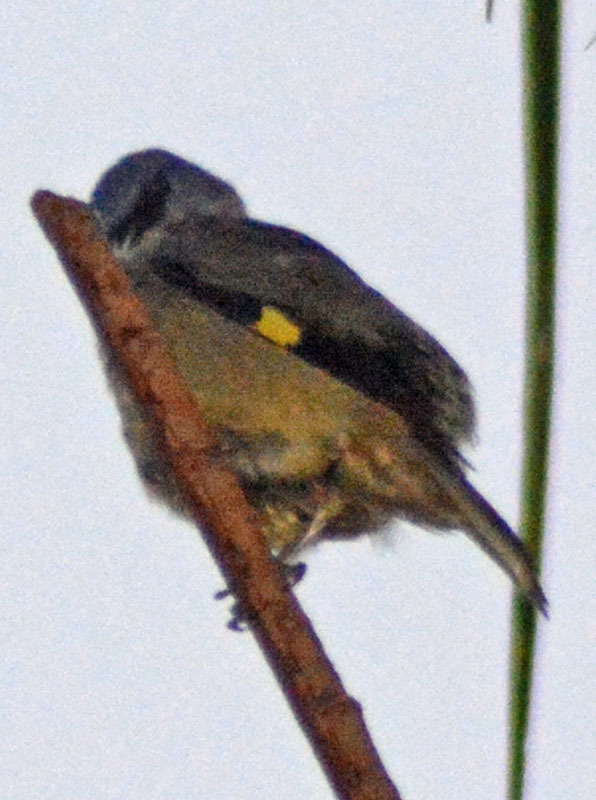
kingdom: Animalia
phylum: Chordata
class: Aves
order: Passeriformes
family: Thraupidae
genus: Thraupis
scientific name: Thraupis abbas
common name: Yellow-winged tanager
